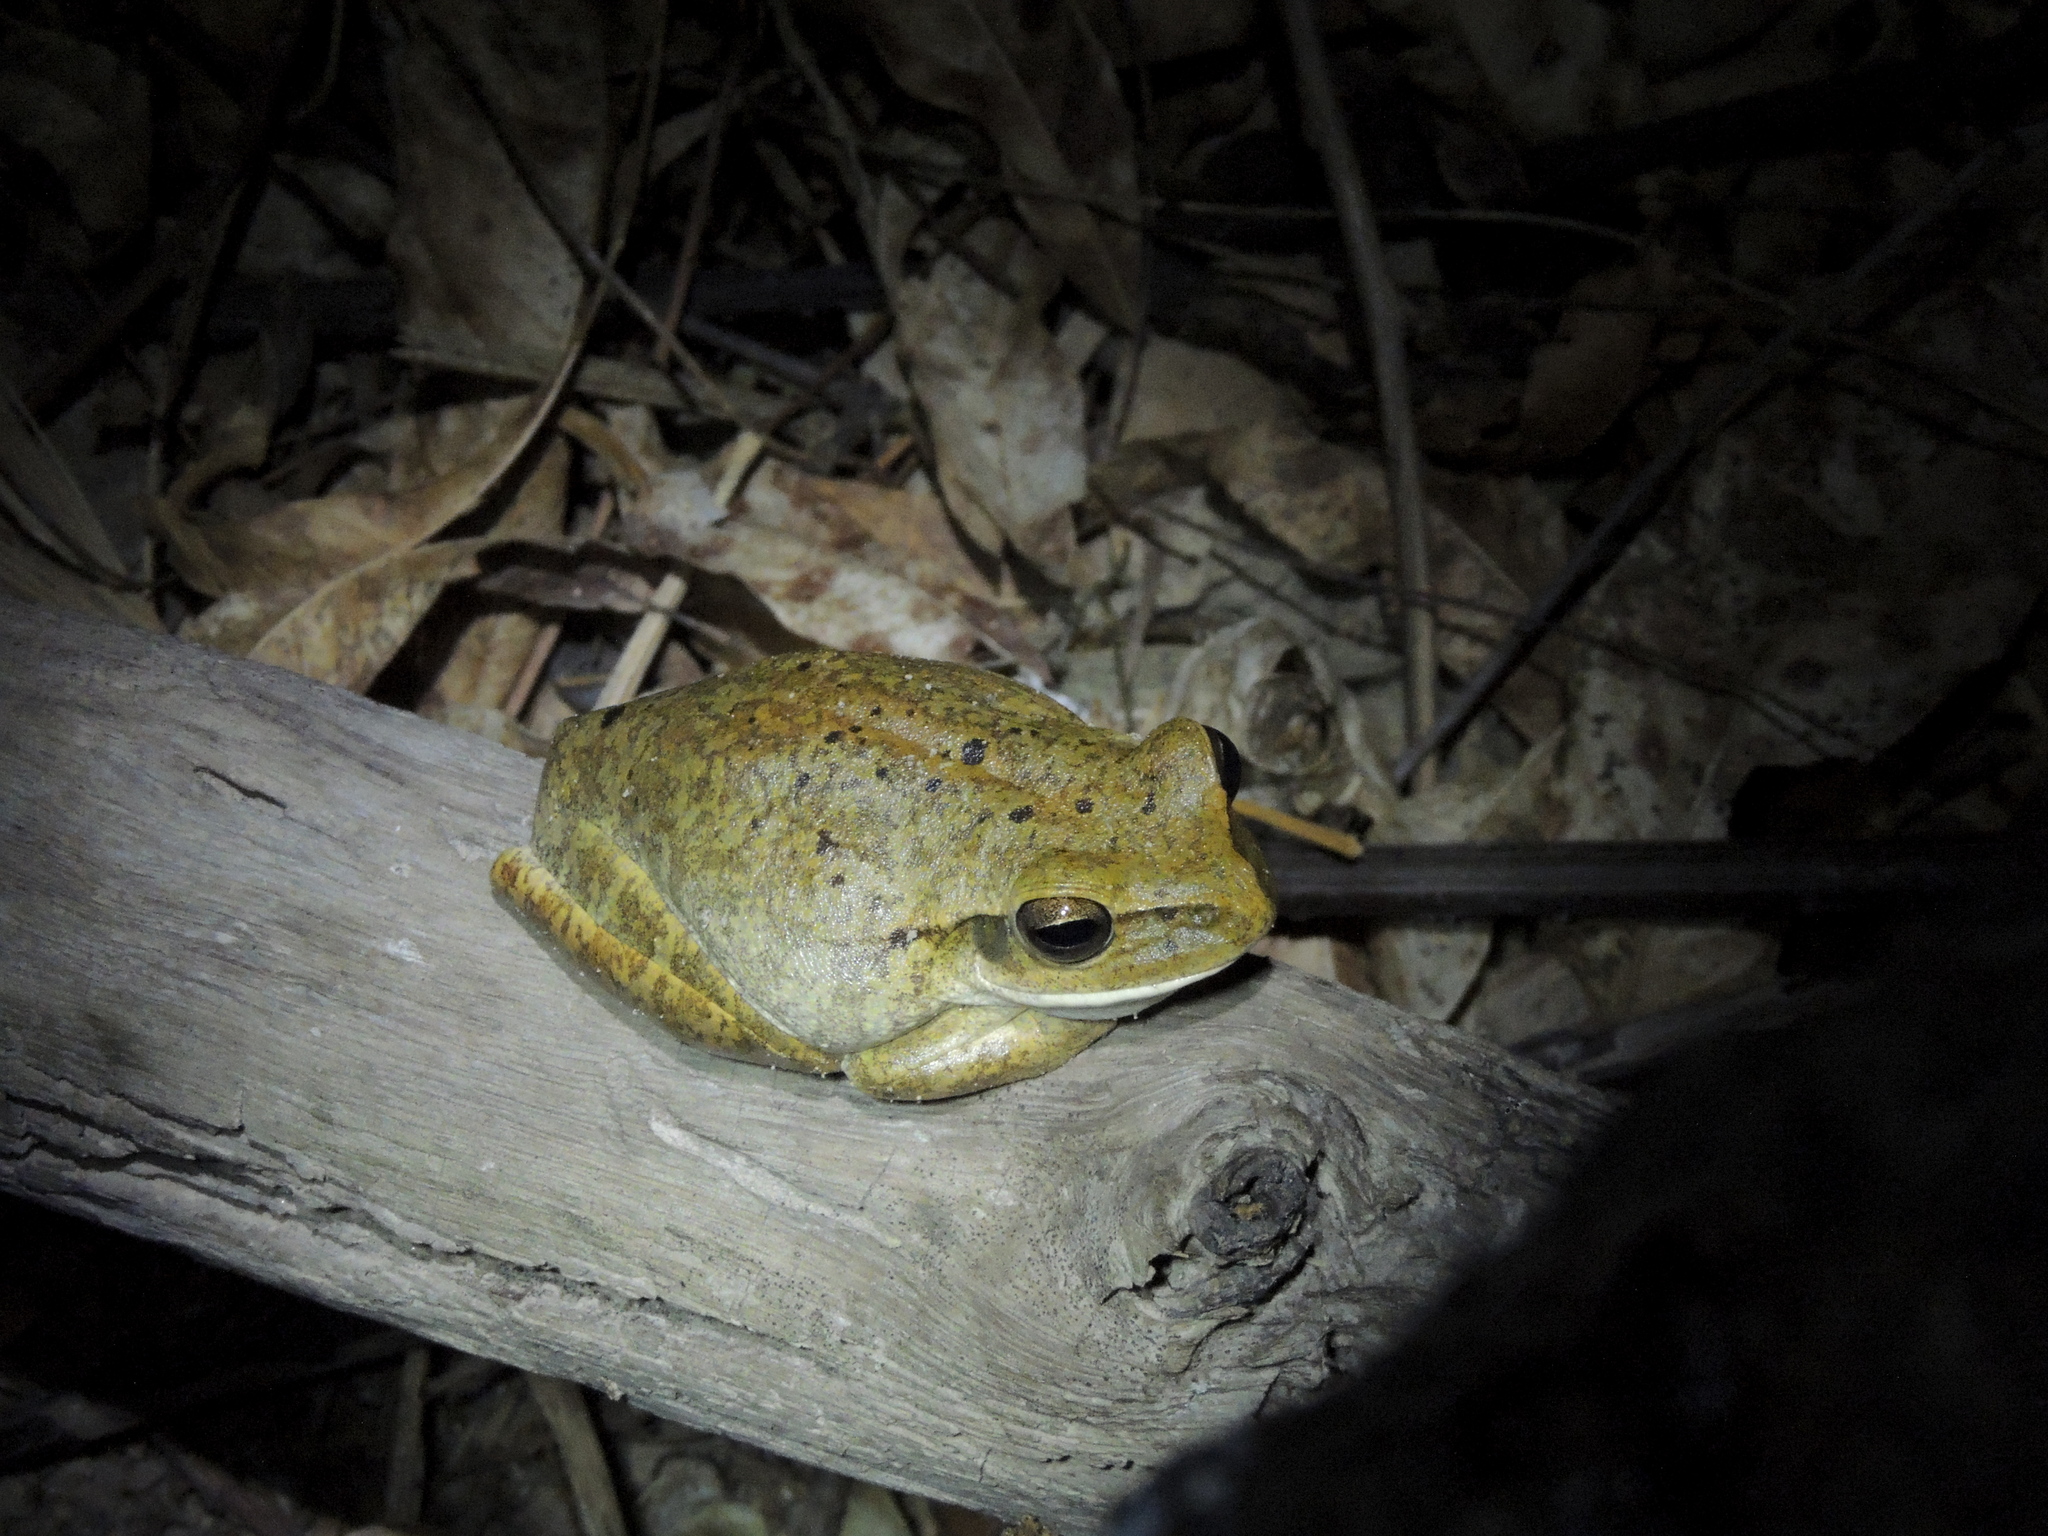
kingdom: Animalia
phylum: Chordata
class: Amphibia
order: Anura
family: Hylidae
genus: Boana
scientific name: Boana raniceps
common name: Chaco treefrog
